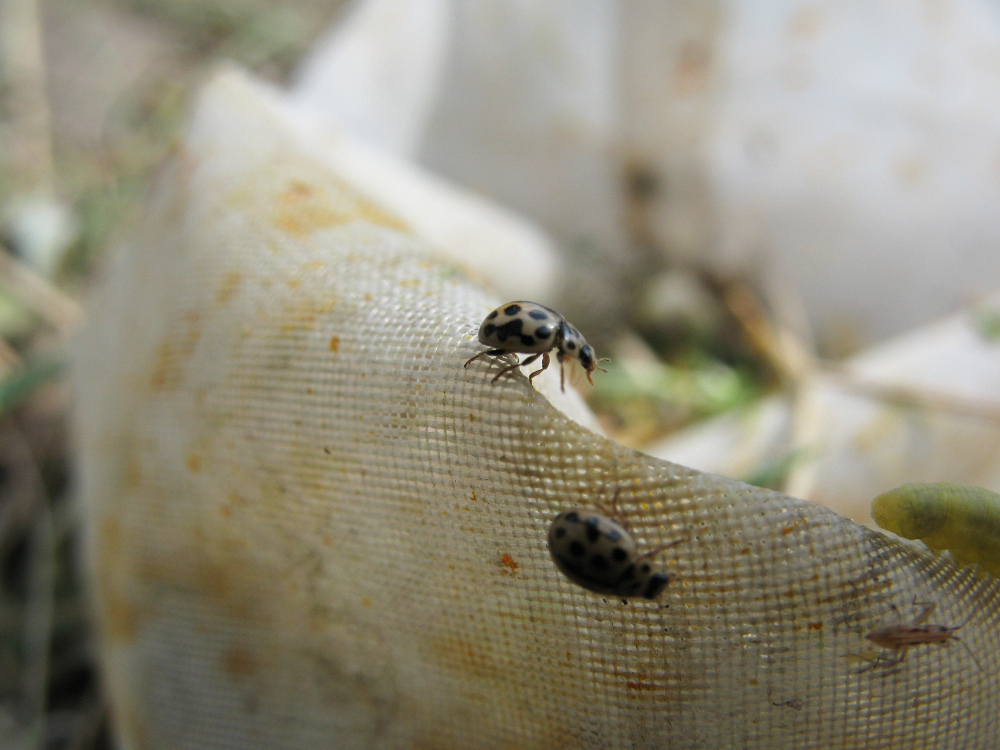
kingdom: Animalia
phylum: Arthropoda
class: Insecta
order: Coleoptera
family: Coccinellidae
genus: Tytthaspis
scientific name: Tytthaspis sedecimpunctata
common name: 16-spot ladybird
